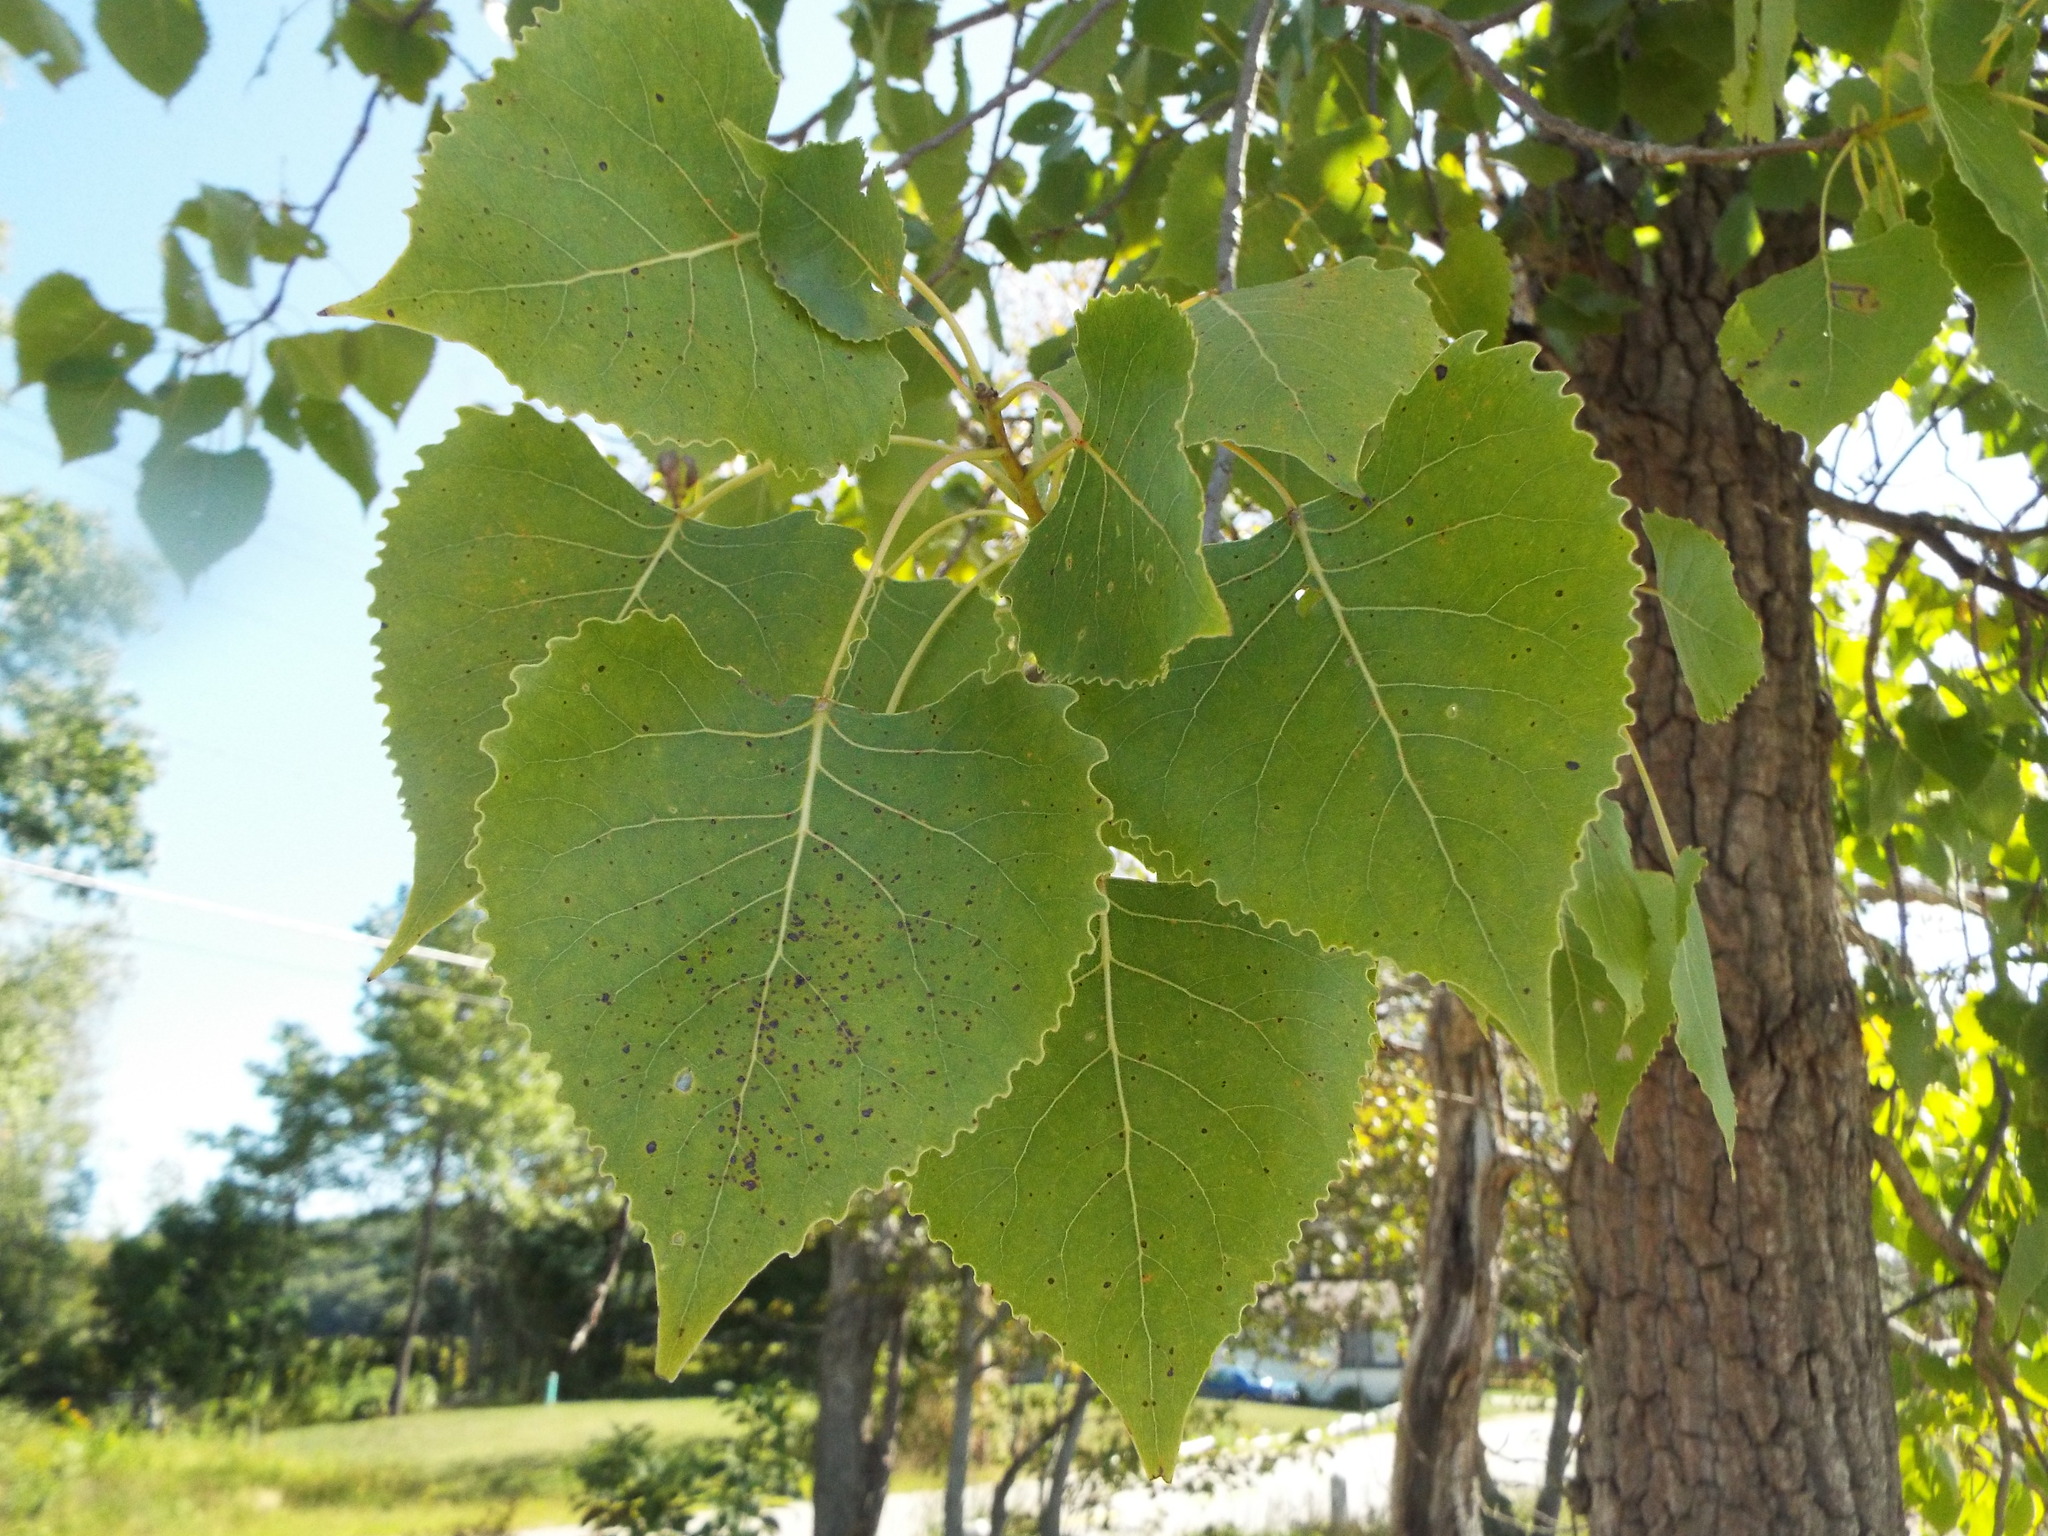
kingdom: Plantae
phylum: Tracheophyta
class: Magnoliopsida
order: Malpighiales
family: Salicaceae
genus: Populus
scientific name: Populus deltoides
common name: Eastern cottonwood
